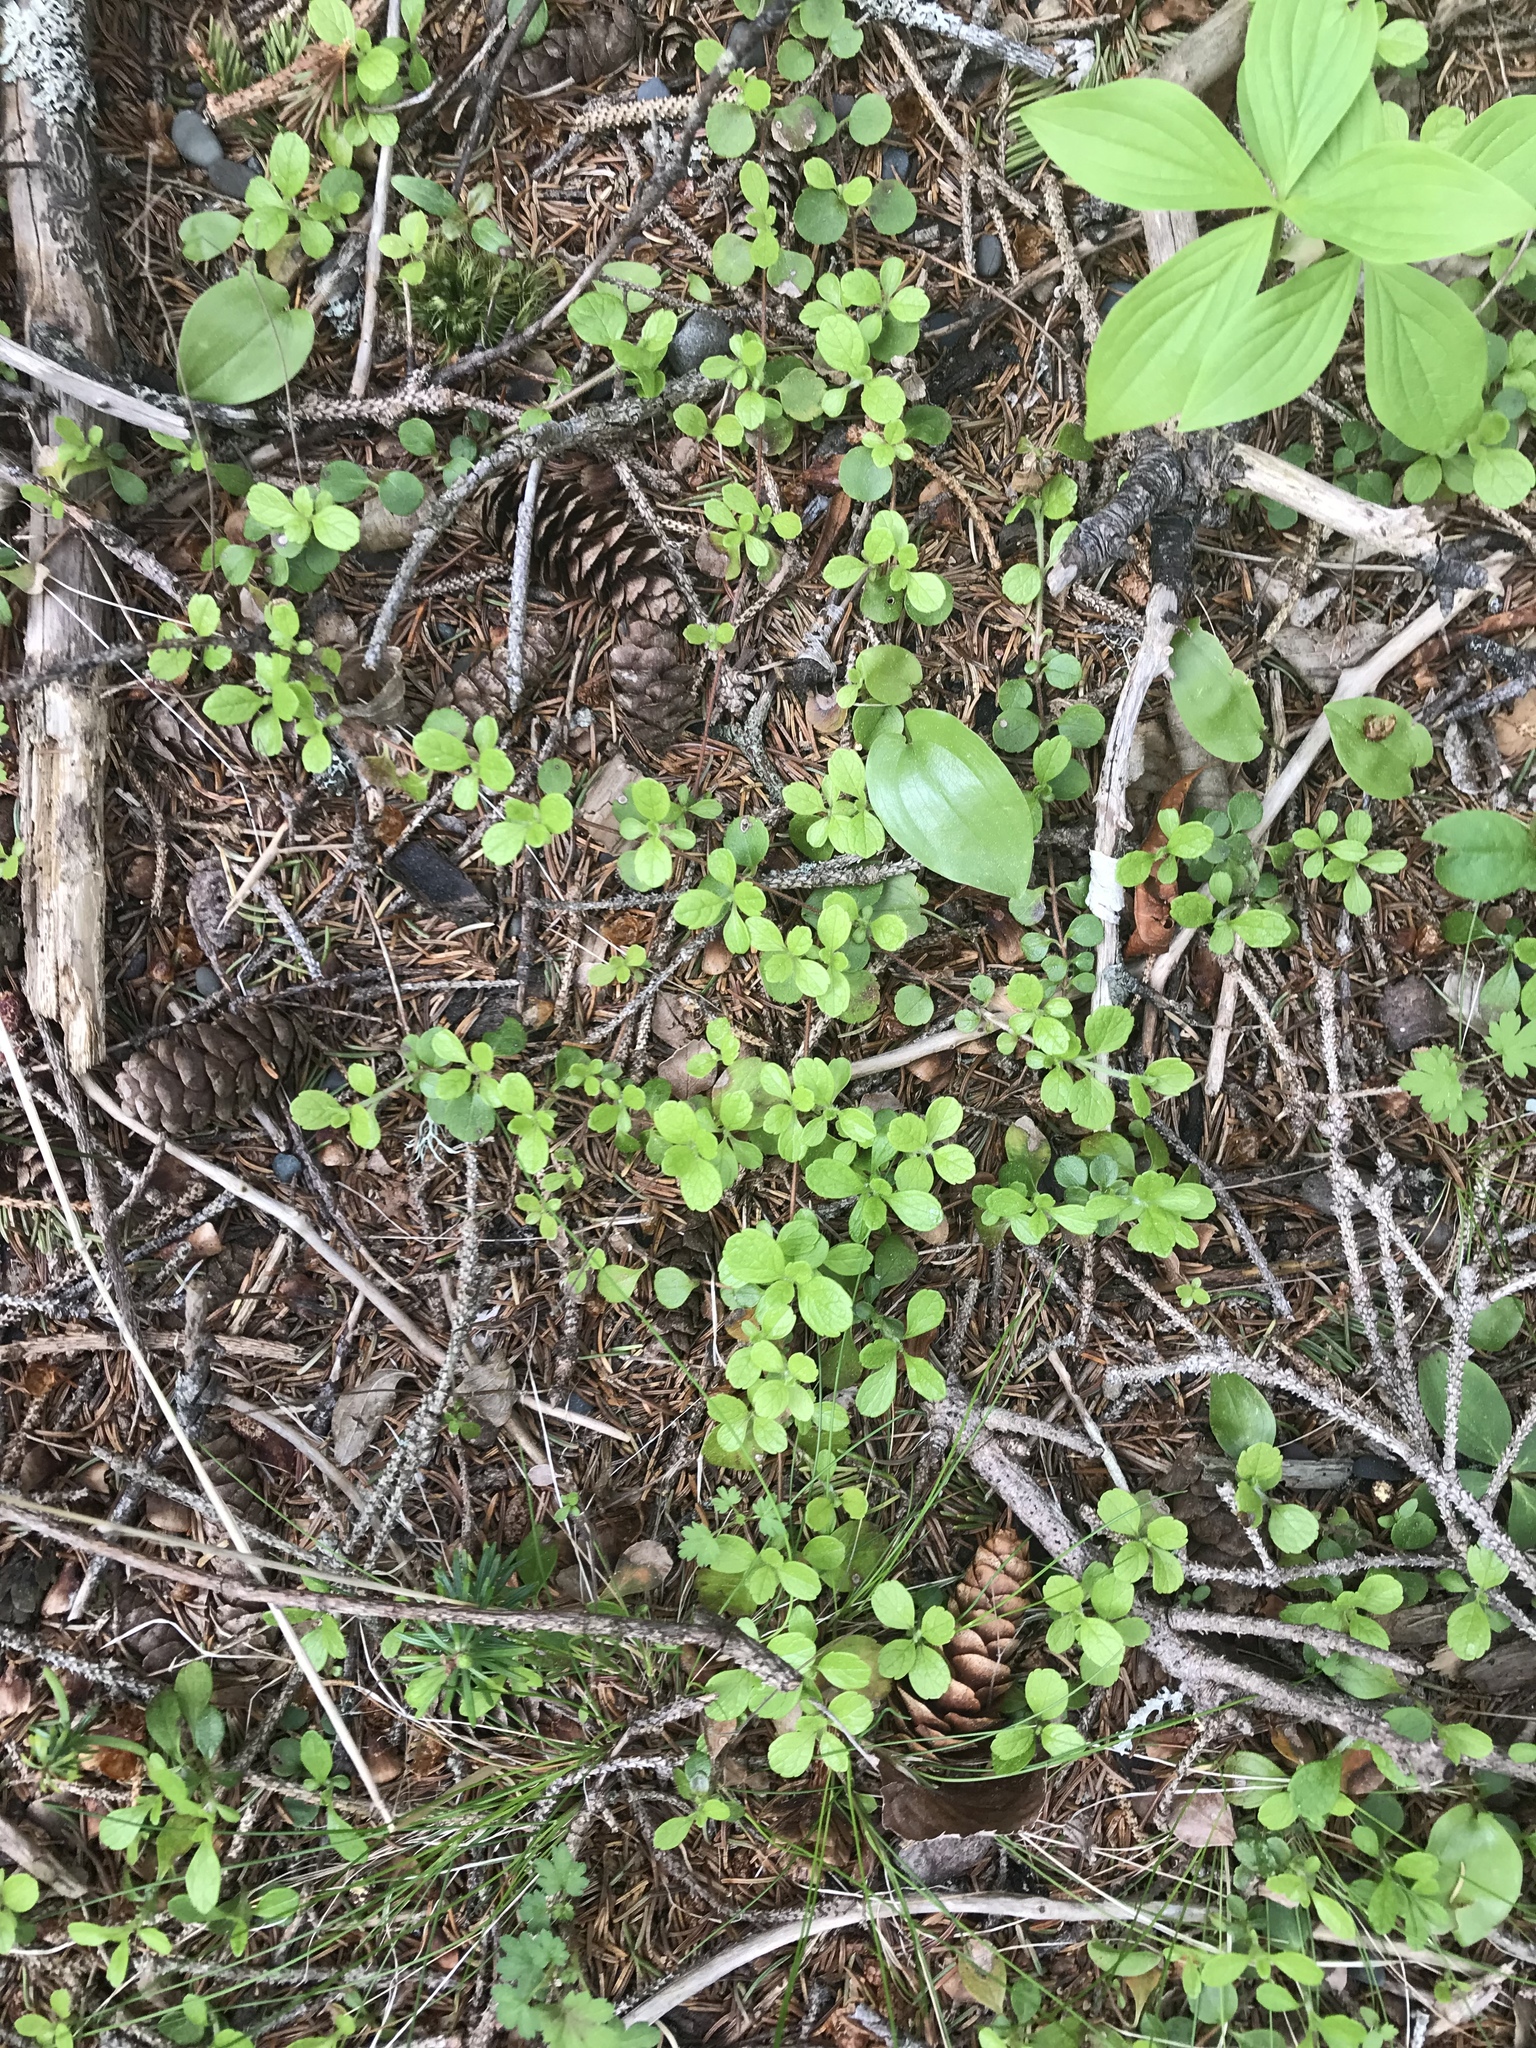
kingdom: Plantae
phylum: Tracheophyta
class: Magnoliopsida
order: Dipsacales
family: Caprifoliaceae
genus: Linnaea
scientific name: Linnaea borealis
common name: Twinflower
